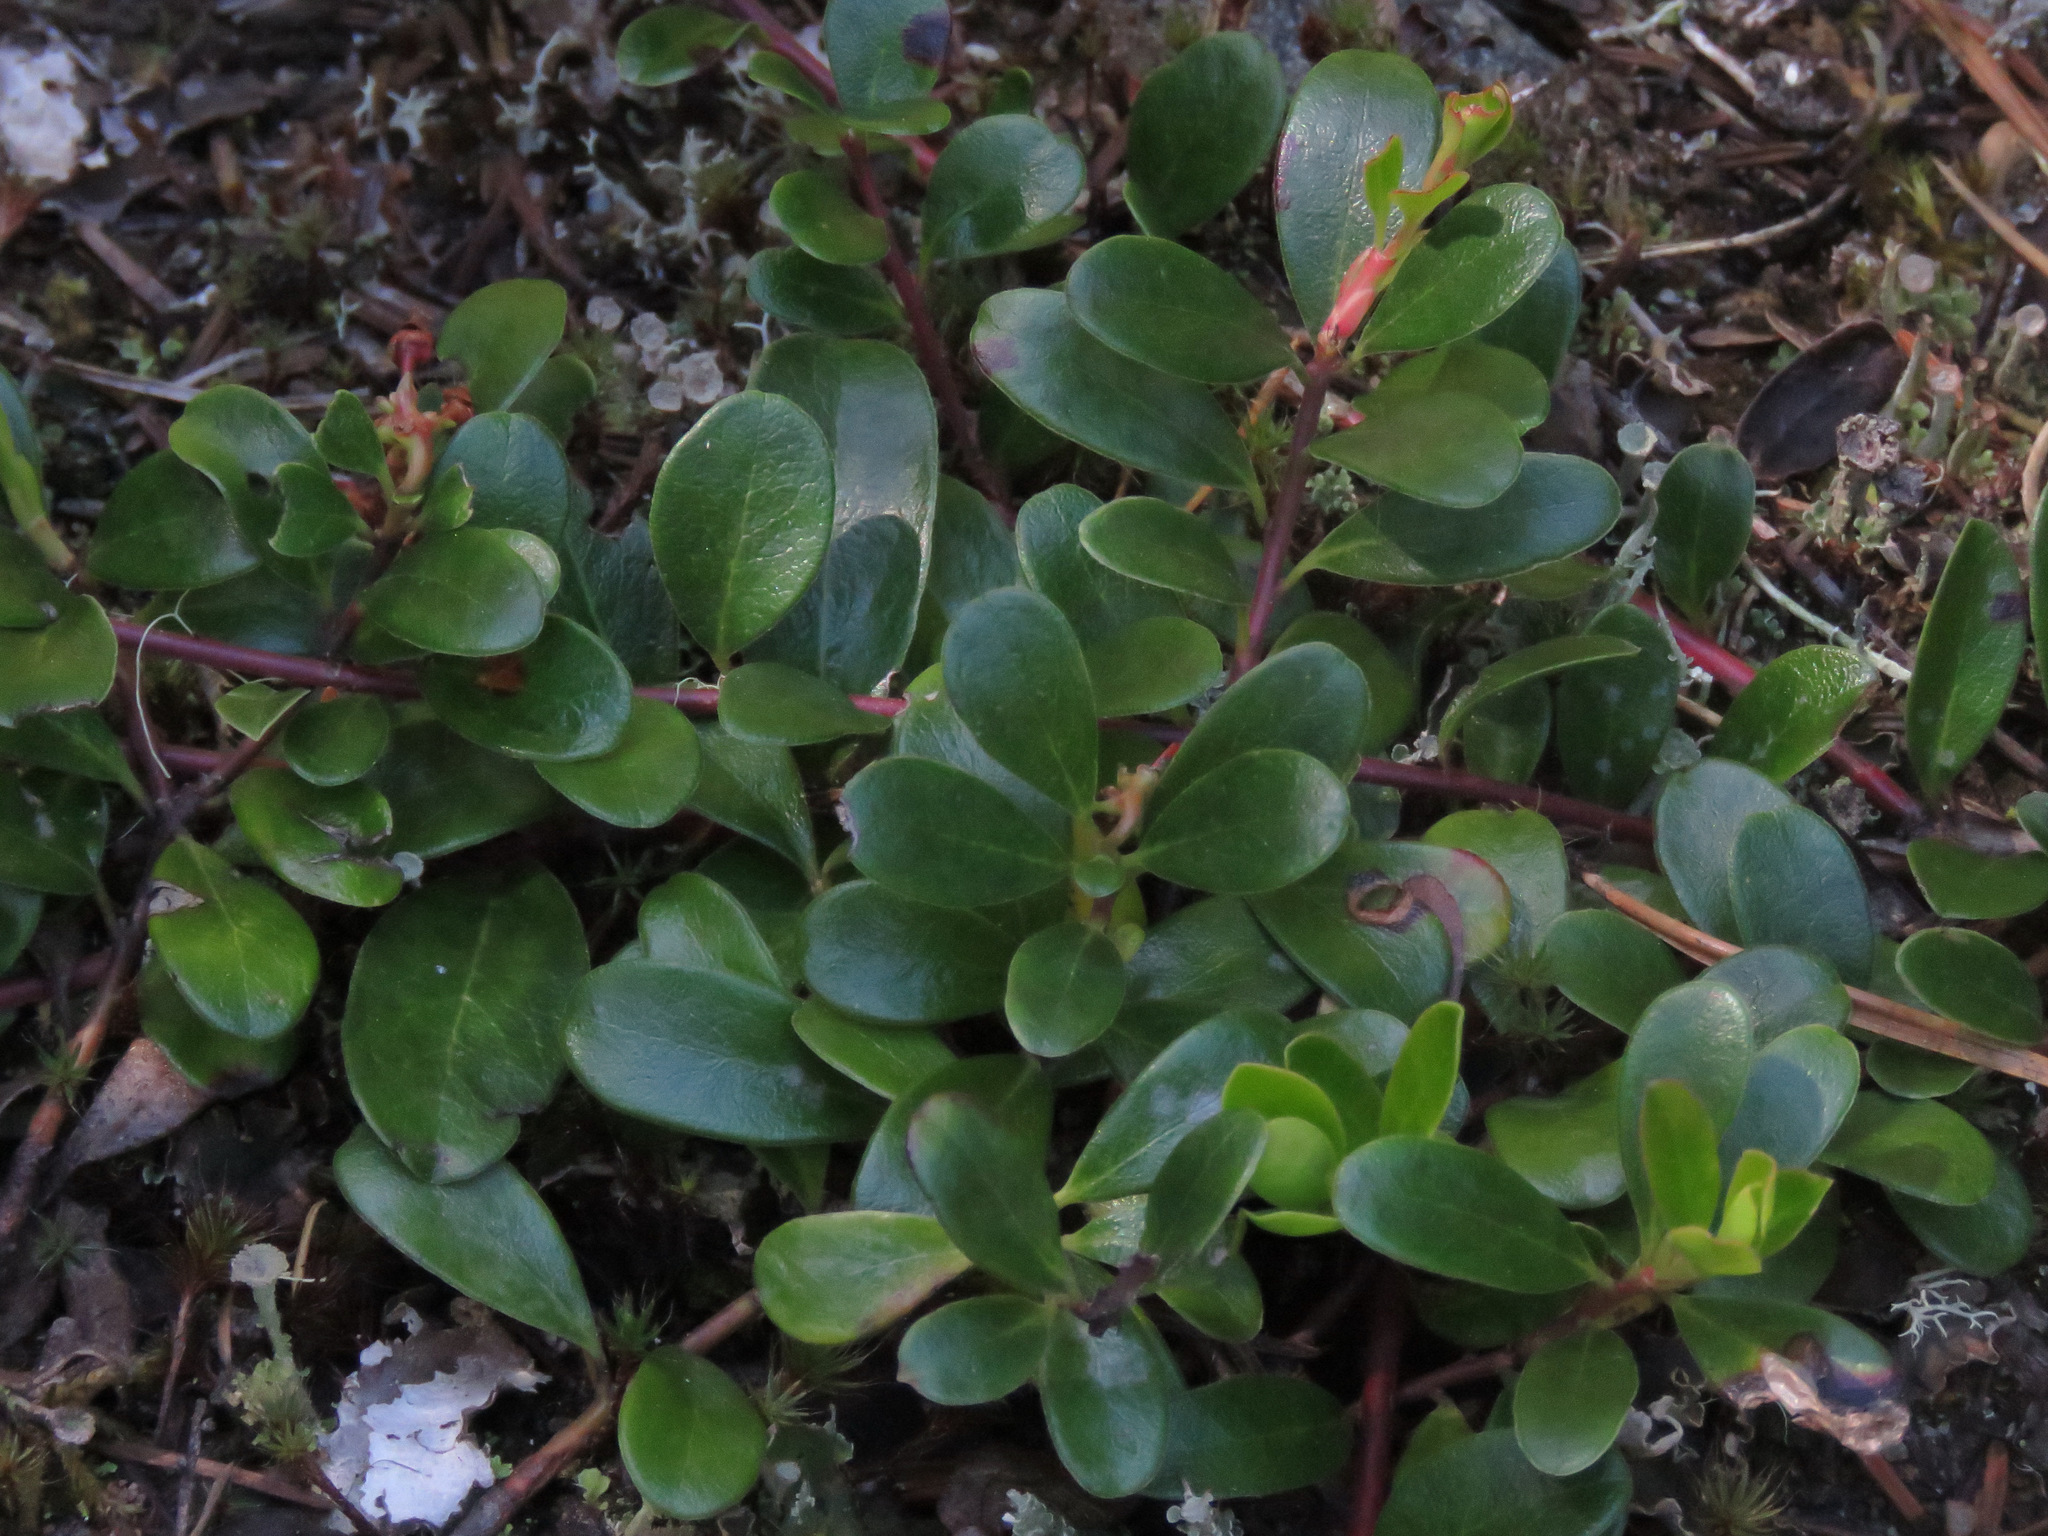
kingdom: Plantae
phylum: Tracheophyta
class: Magnoliopsida
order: Ericales
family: Ericaceae
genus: Arctostaphylos
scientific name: Arctostaphylos uva-ursi
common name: Bearberry
